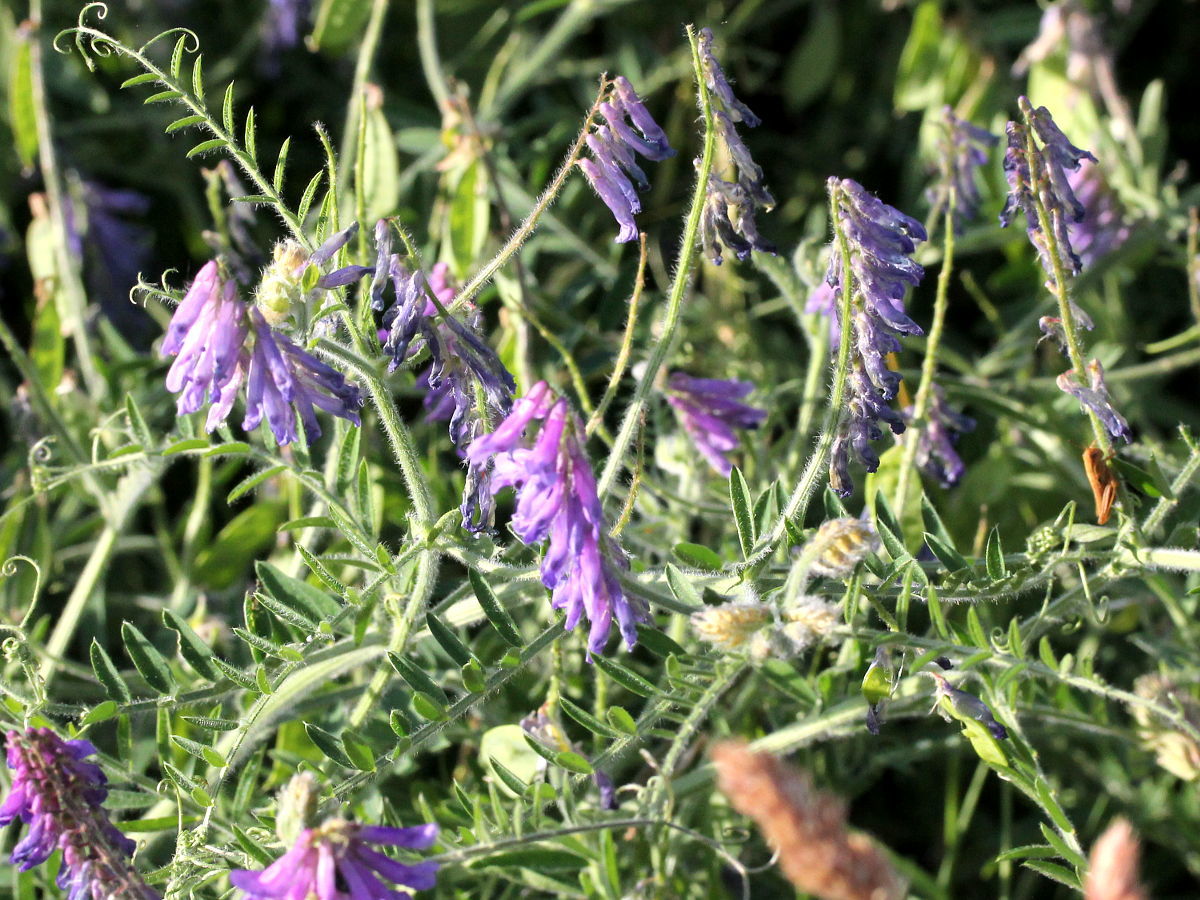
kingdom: Plantae
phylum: Tracheophyta
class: Magnoliopsida
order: Fabales
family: Fabaceae
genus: Vicia
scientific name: Vicia villosa
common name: Fodder vetch
